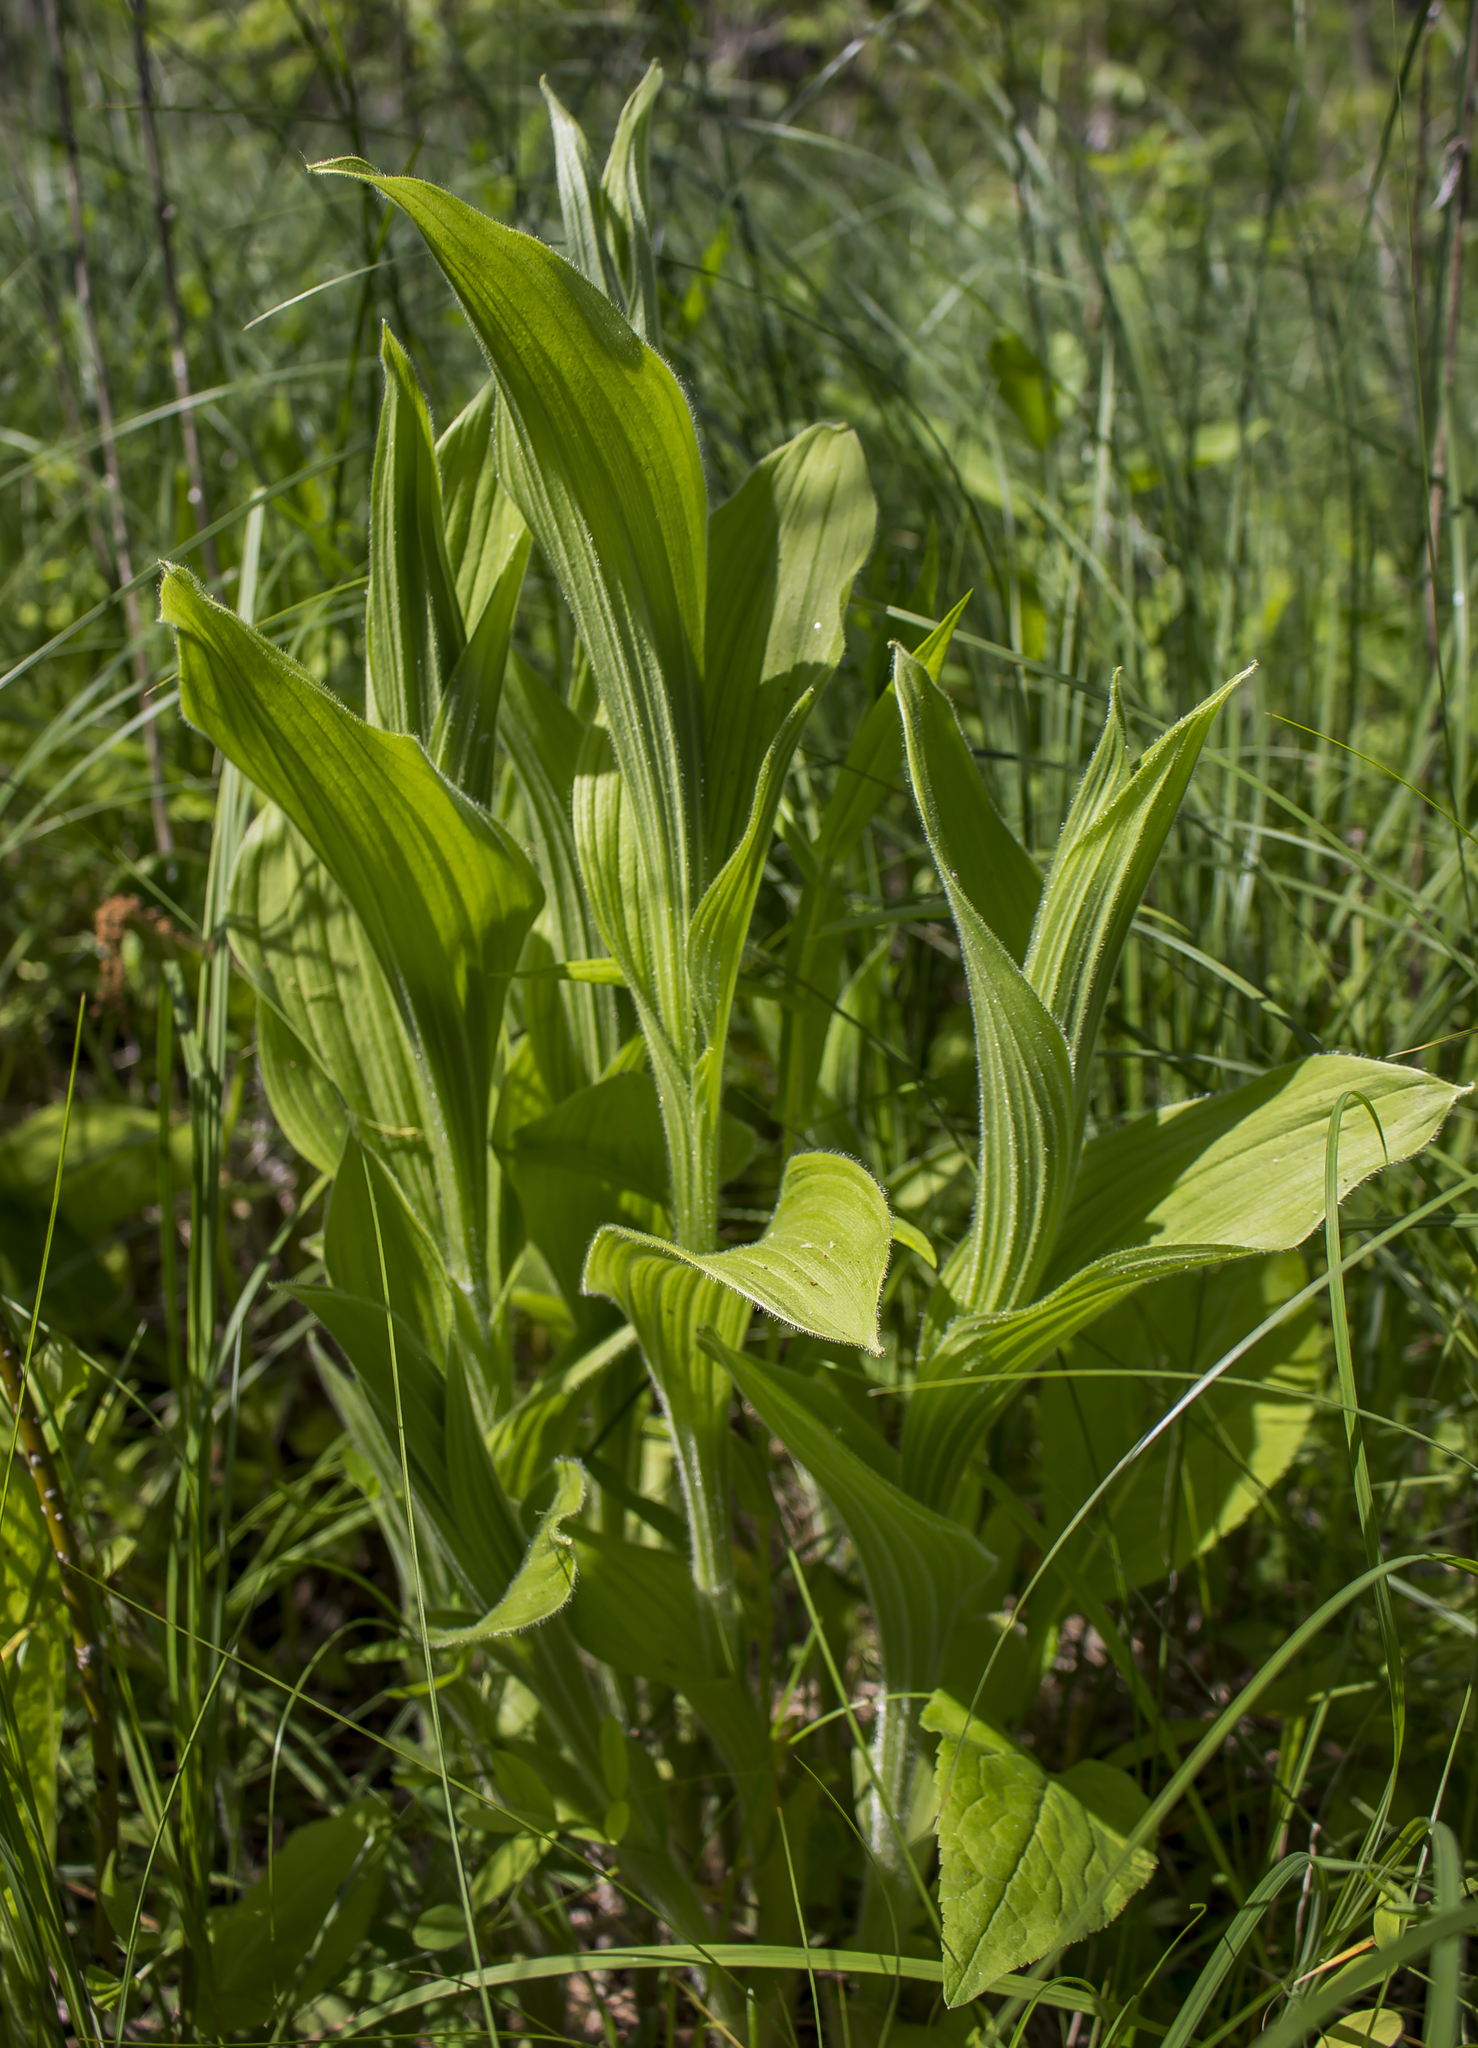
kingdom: Plantae
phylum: Tracheophyta
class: Liliopsida
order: Asparagales
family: Orchidaceae
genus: Cypripedium
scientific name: Cypripedium reginae
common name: Queen lady's-slipper
